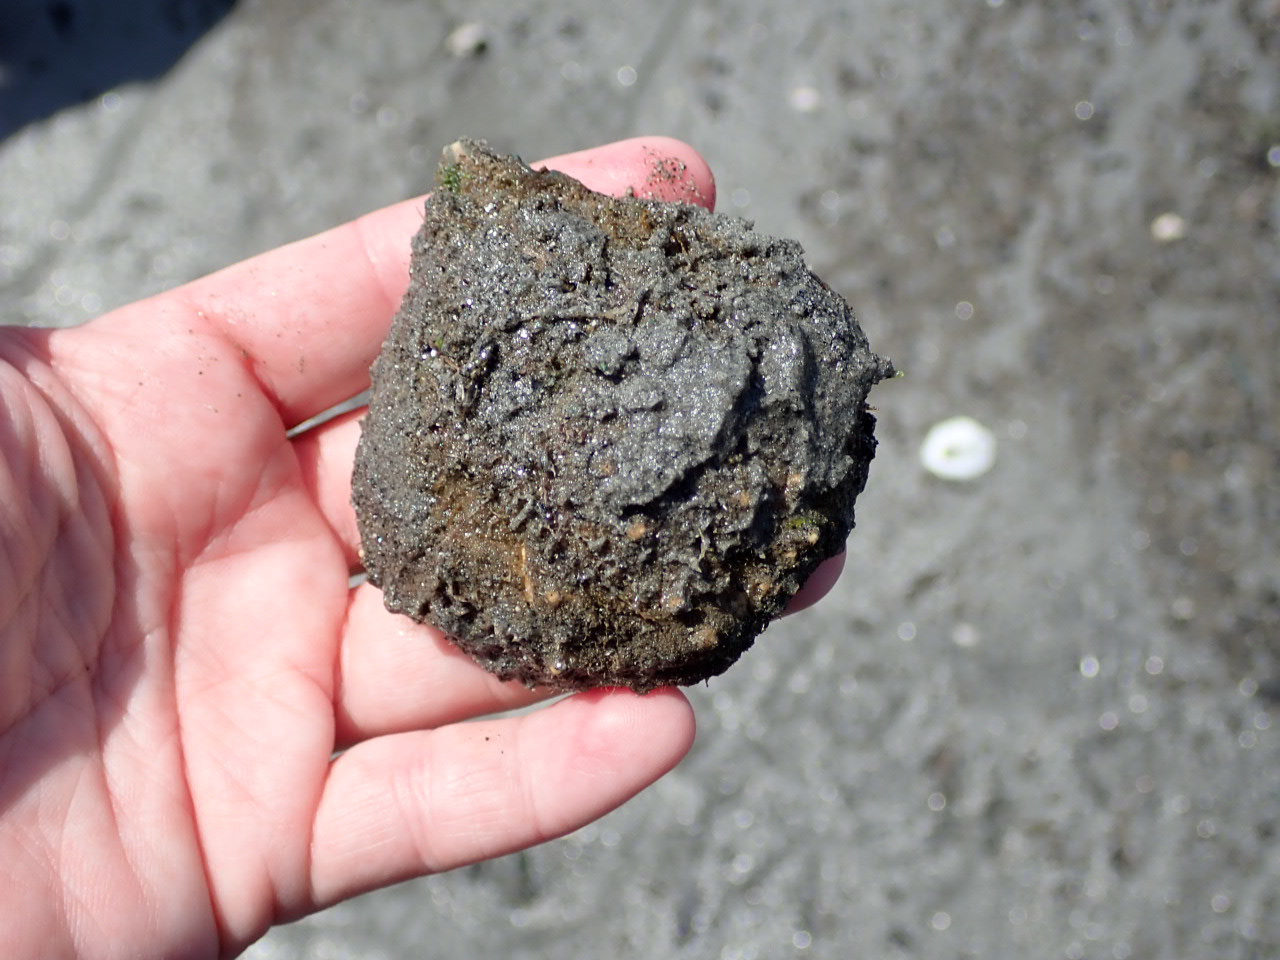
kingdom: Animalia
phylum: Arthropoda
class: Malacostraca
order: Decapoda
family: Epialtidae
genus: Libinia
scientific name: Libinia emarginata
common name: Common spider crab
